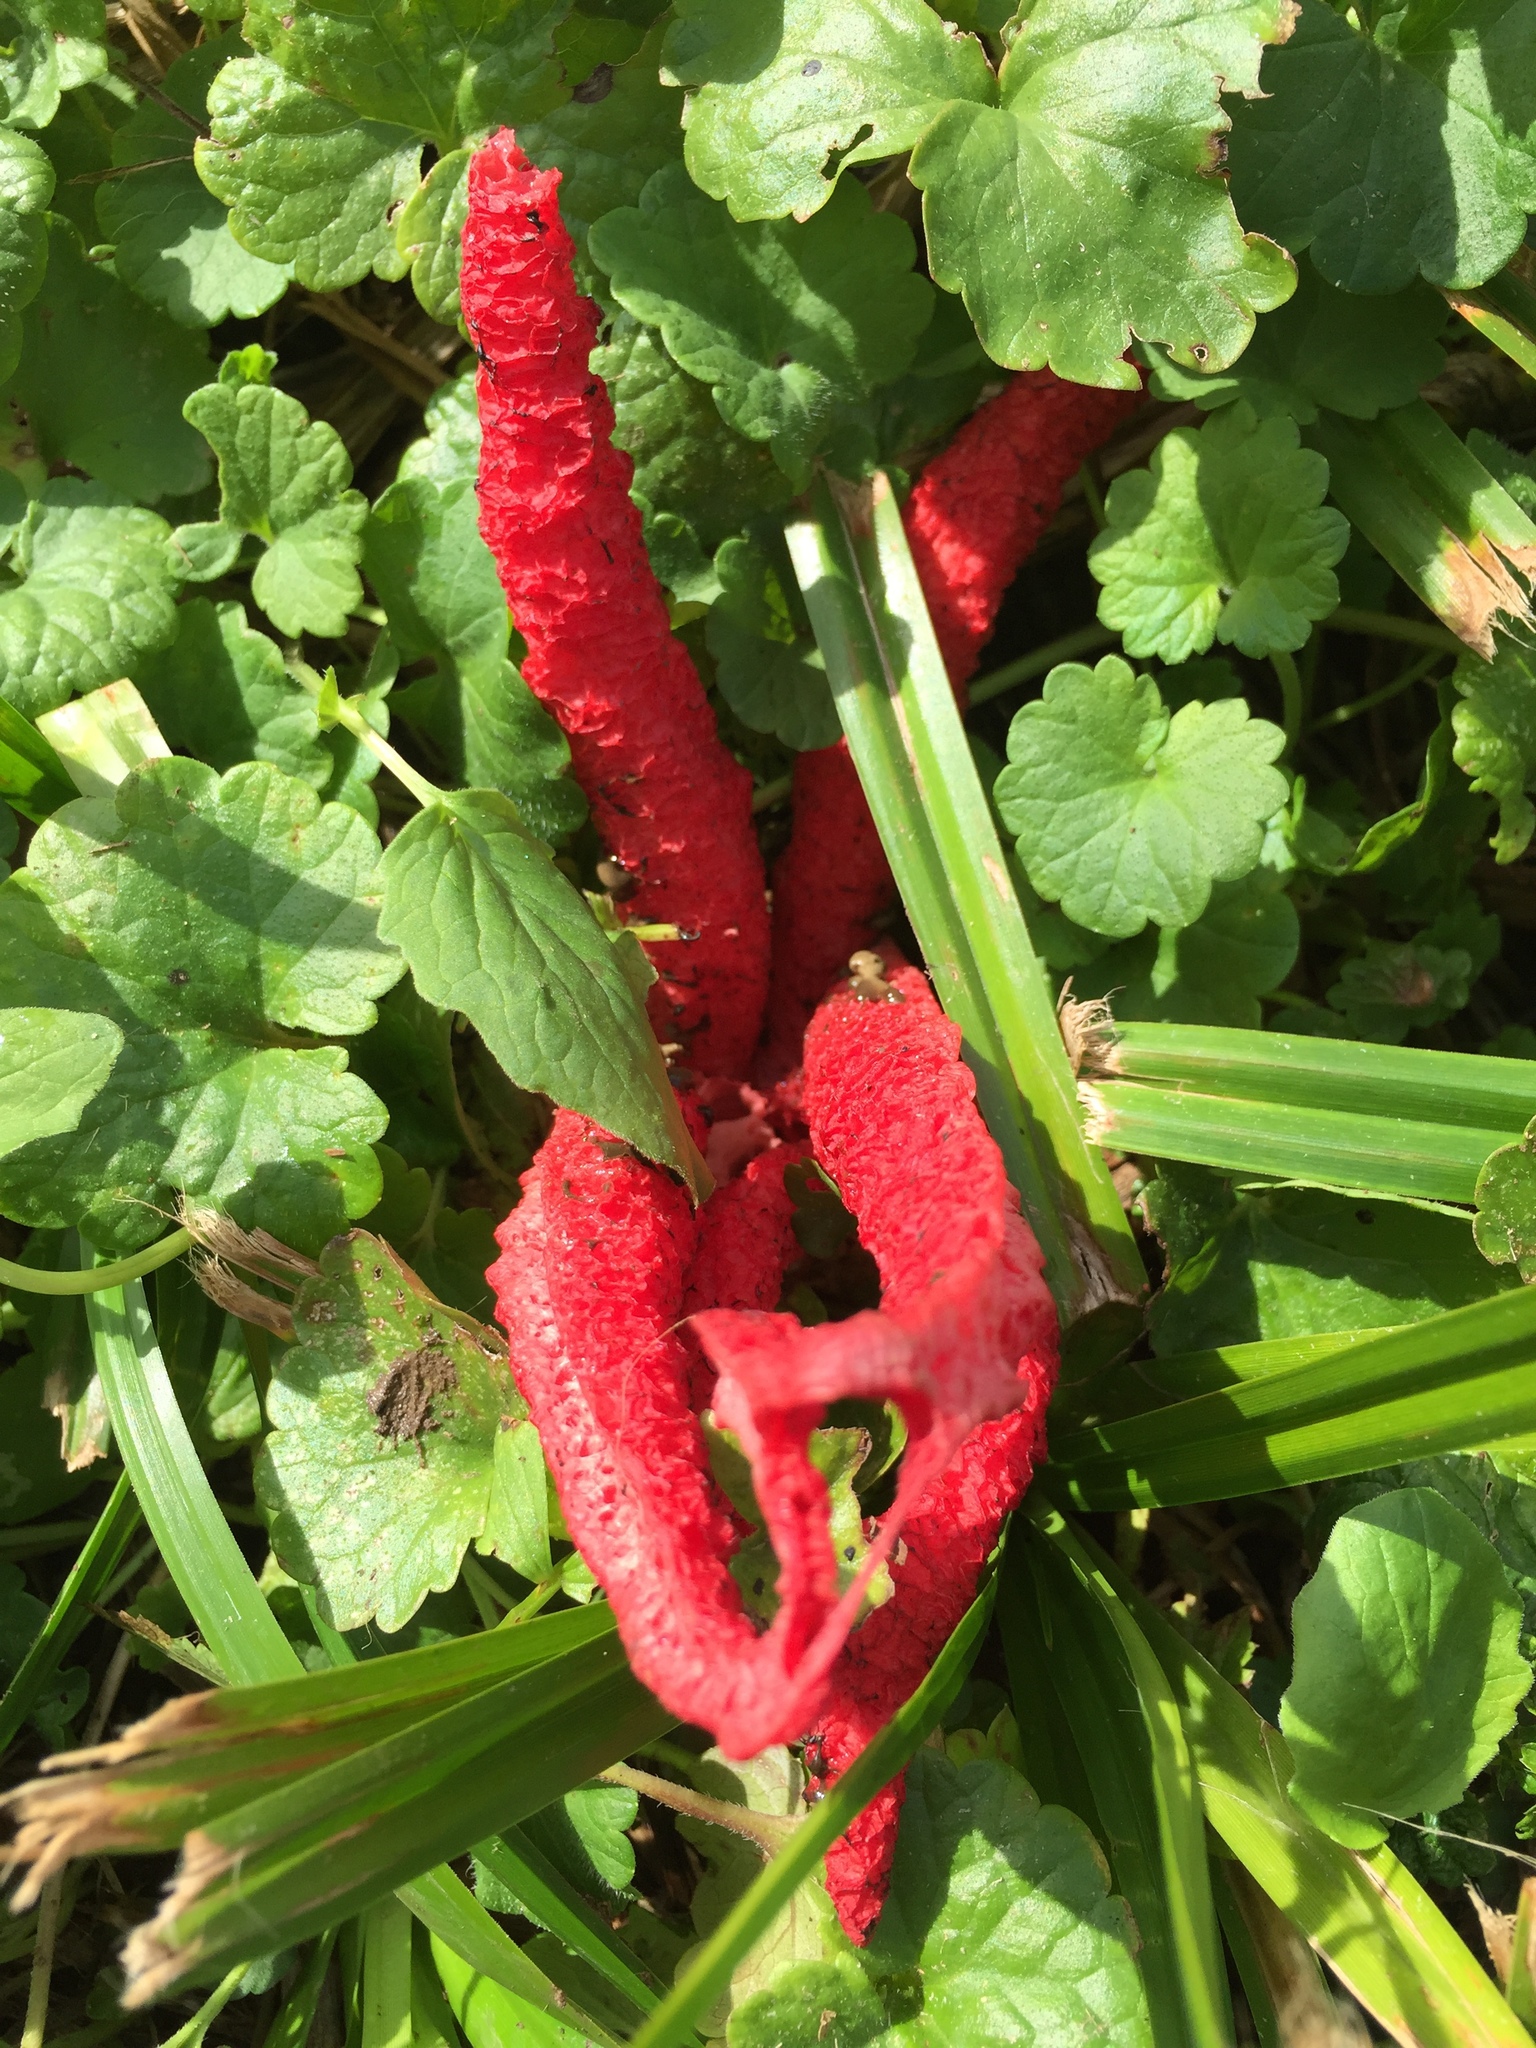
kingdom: Fungi
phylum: Basidiomycota
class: Agaricomycetes
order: Phallales
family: Phallaceae
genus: Clathrus
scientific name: Clathrus archeri
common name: Devil's fingers
